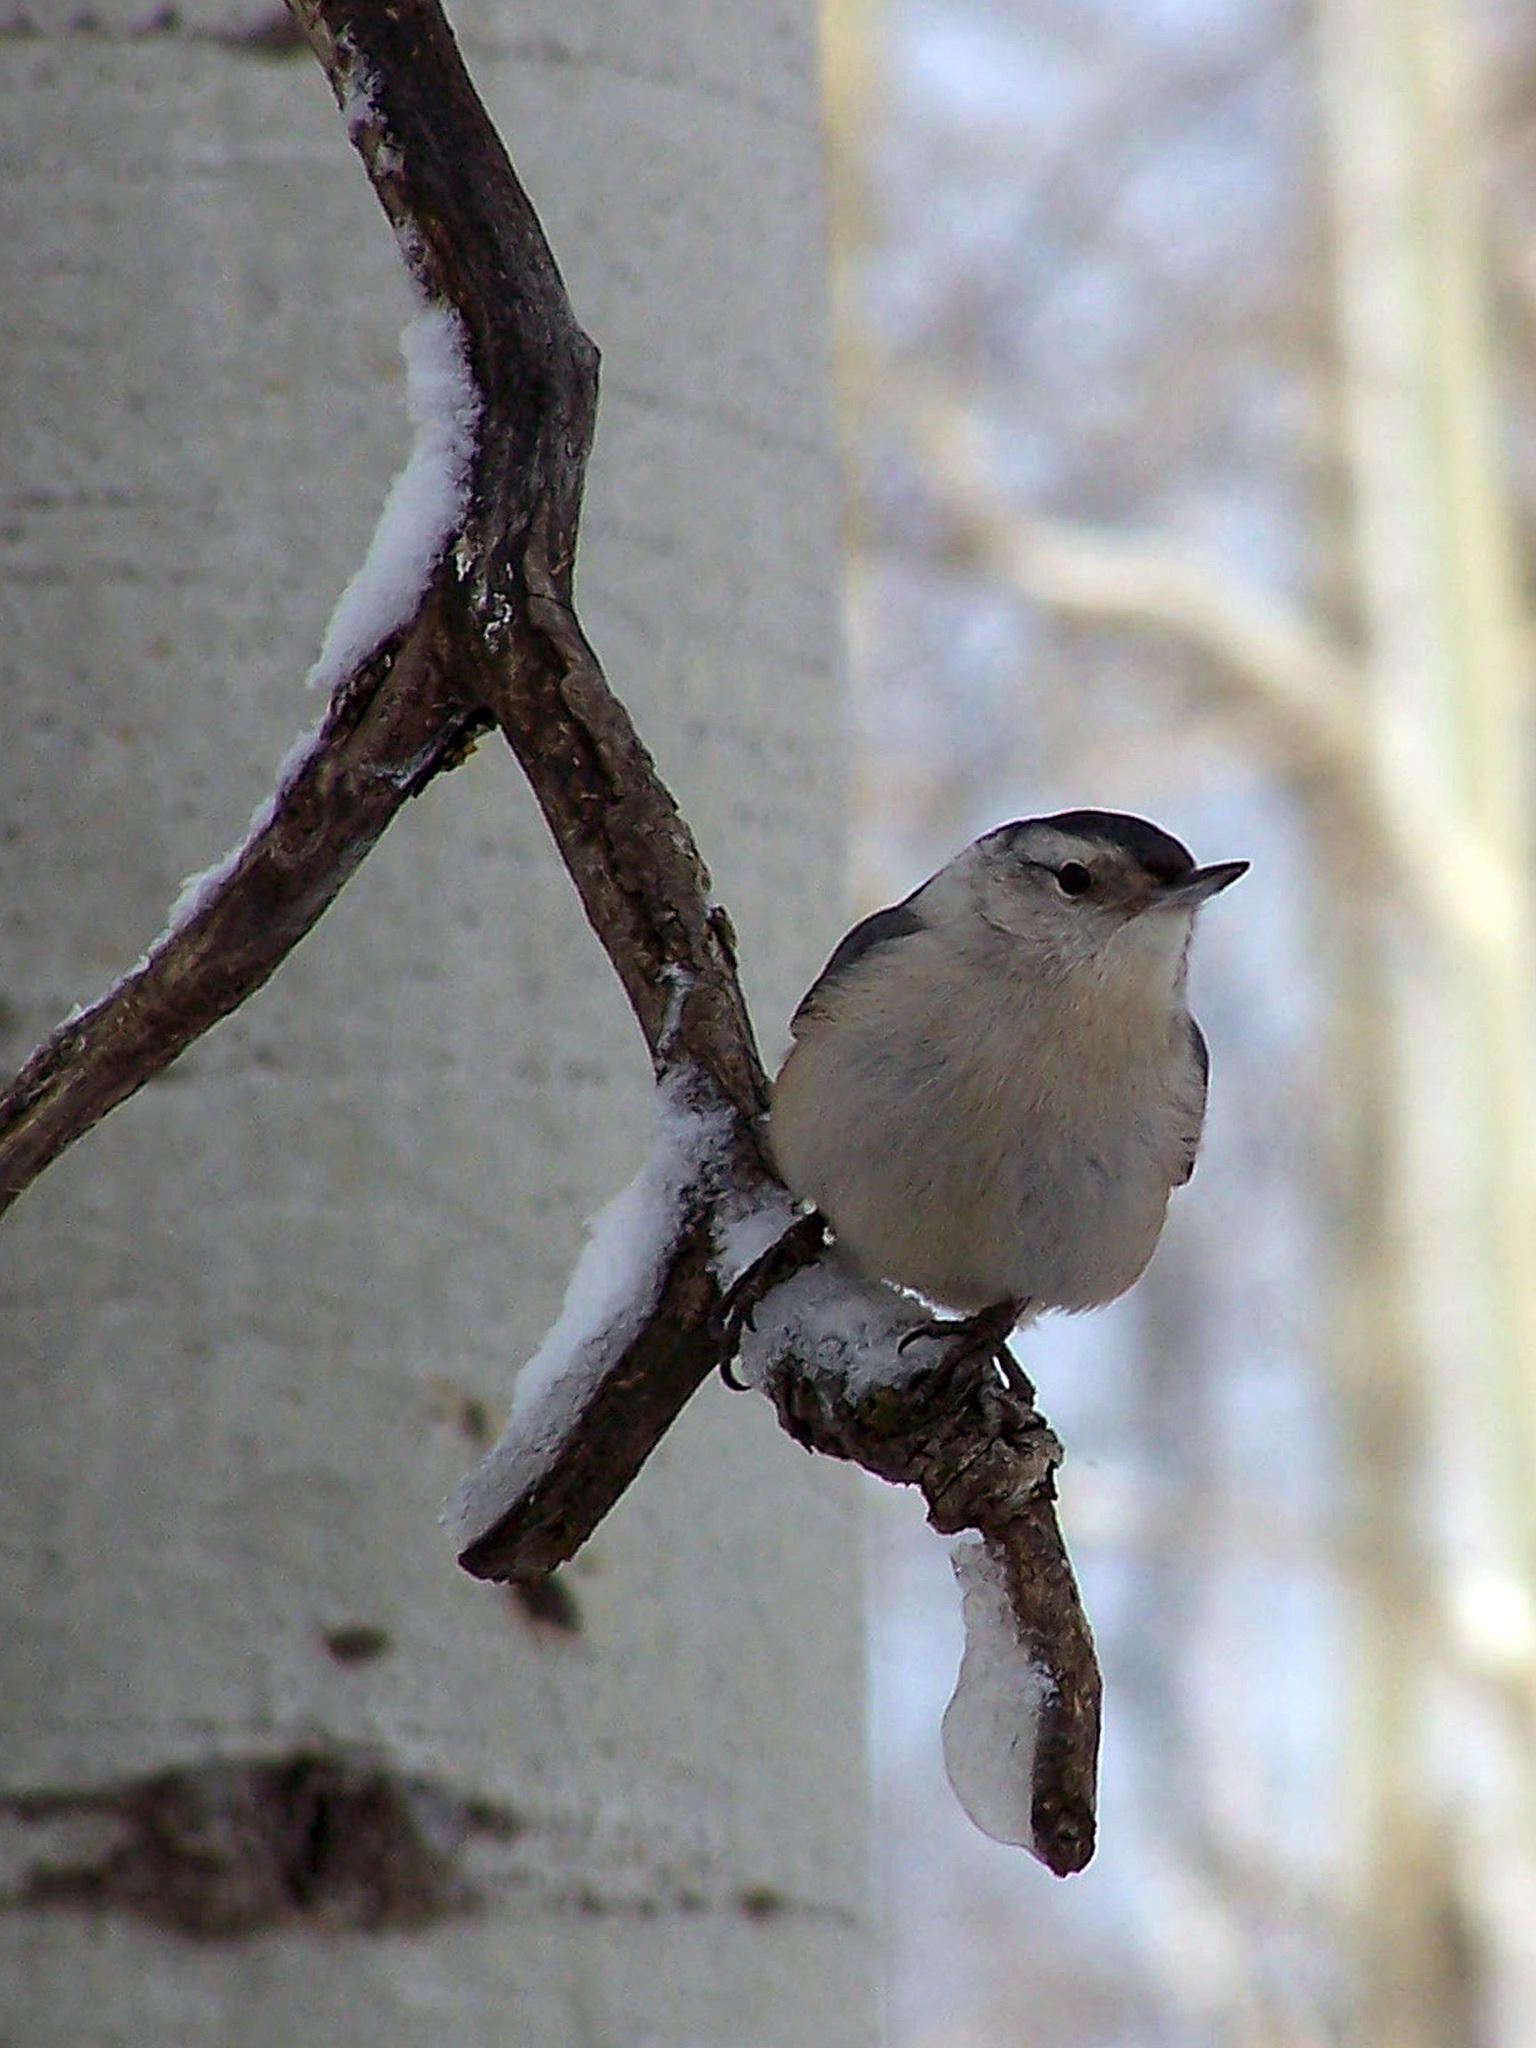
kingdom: Animalia
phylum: Chordata
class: Aves
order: Passeriformes
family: Sittidae
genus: Sitta
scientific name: Sitta carolinensis
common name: White-breasted nuthatch
